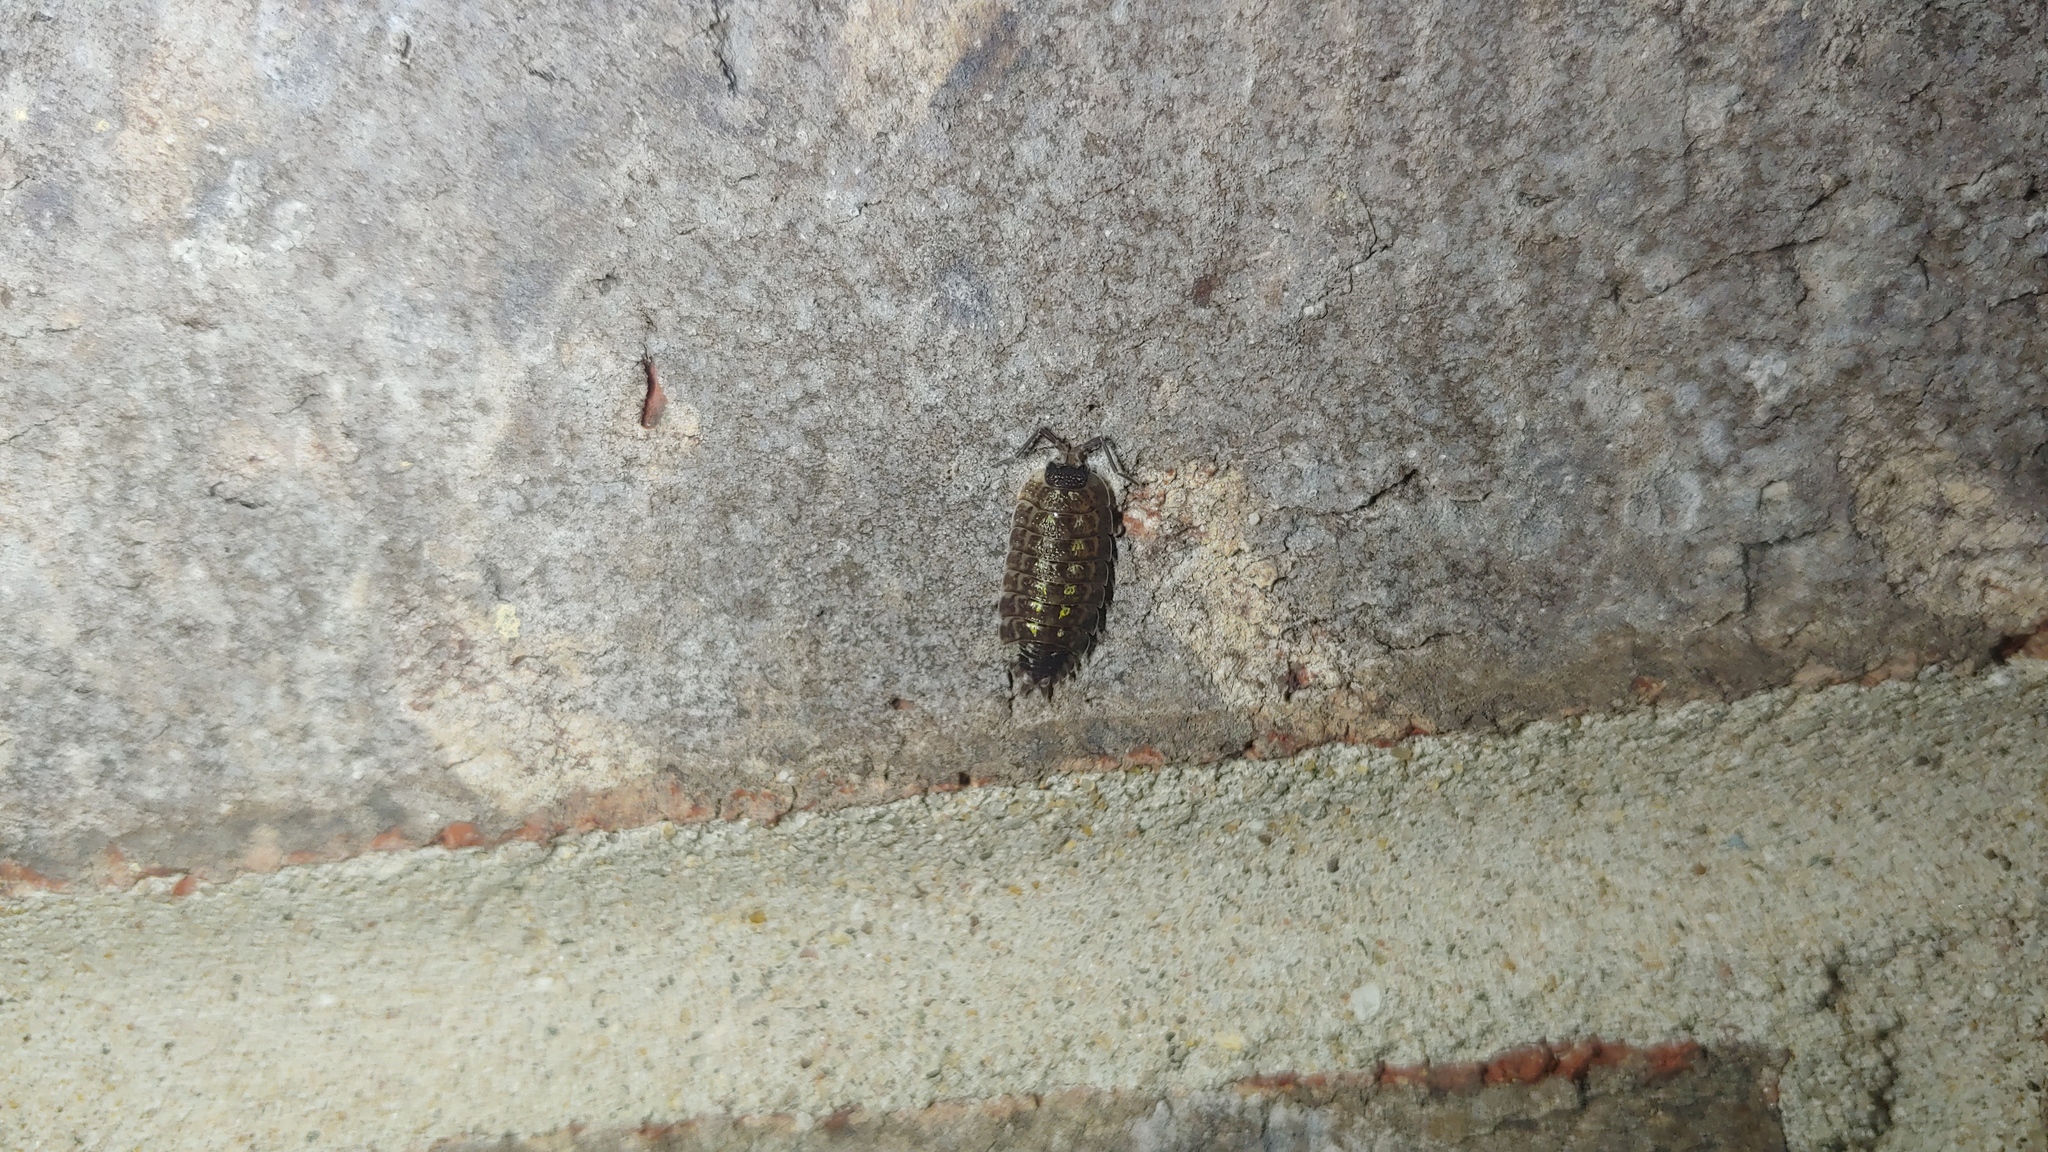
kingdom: Animalia
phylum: Arthropoda
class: Malacostraca
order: Isopoda
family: Porcellionidae
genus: Porcellio
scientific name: Porcellio spinicornis
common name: Painted woodlouse
